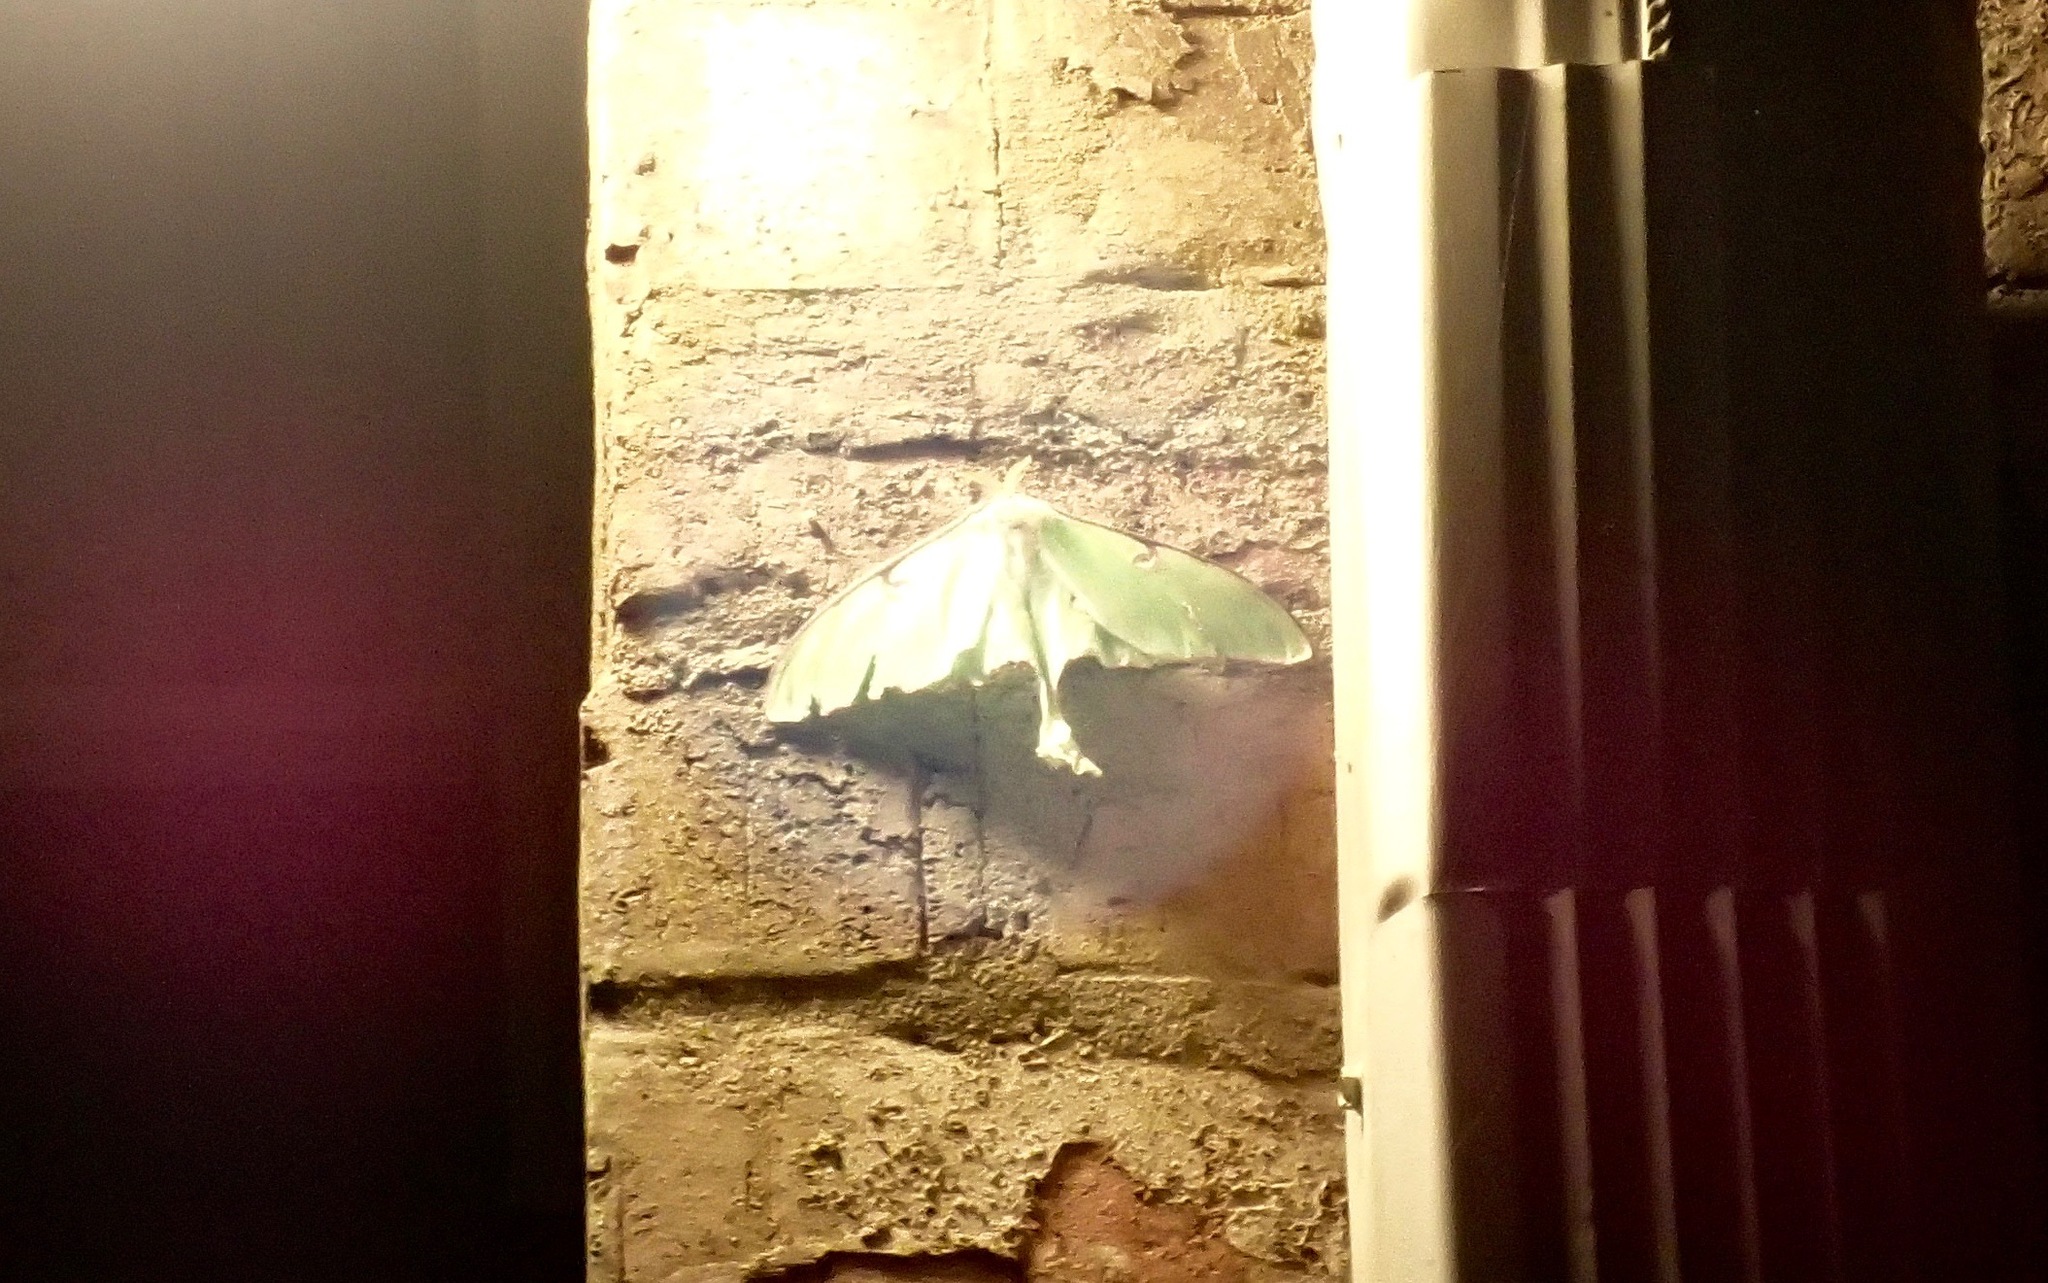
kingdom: Animalia
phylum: Arthropoda
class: Insecta
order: Lepidoptera
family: Saturniidae
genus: Actias
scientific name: Actias luna
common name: Luna moth
